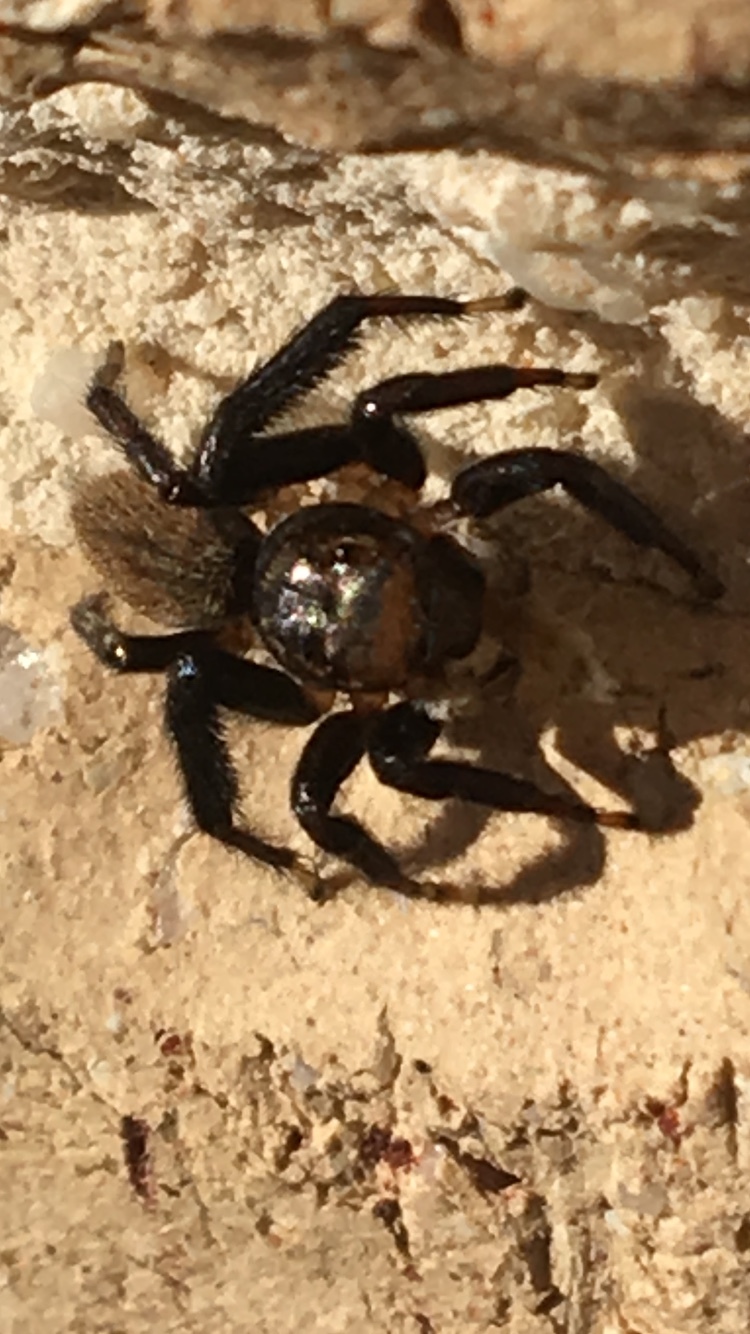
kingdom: Animalia
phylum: Arthropoda
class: Arachnida
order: Araneae
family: Salticidae
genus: Maratus
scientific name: Maratus griseus
